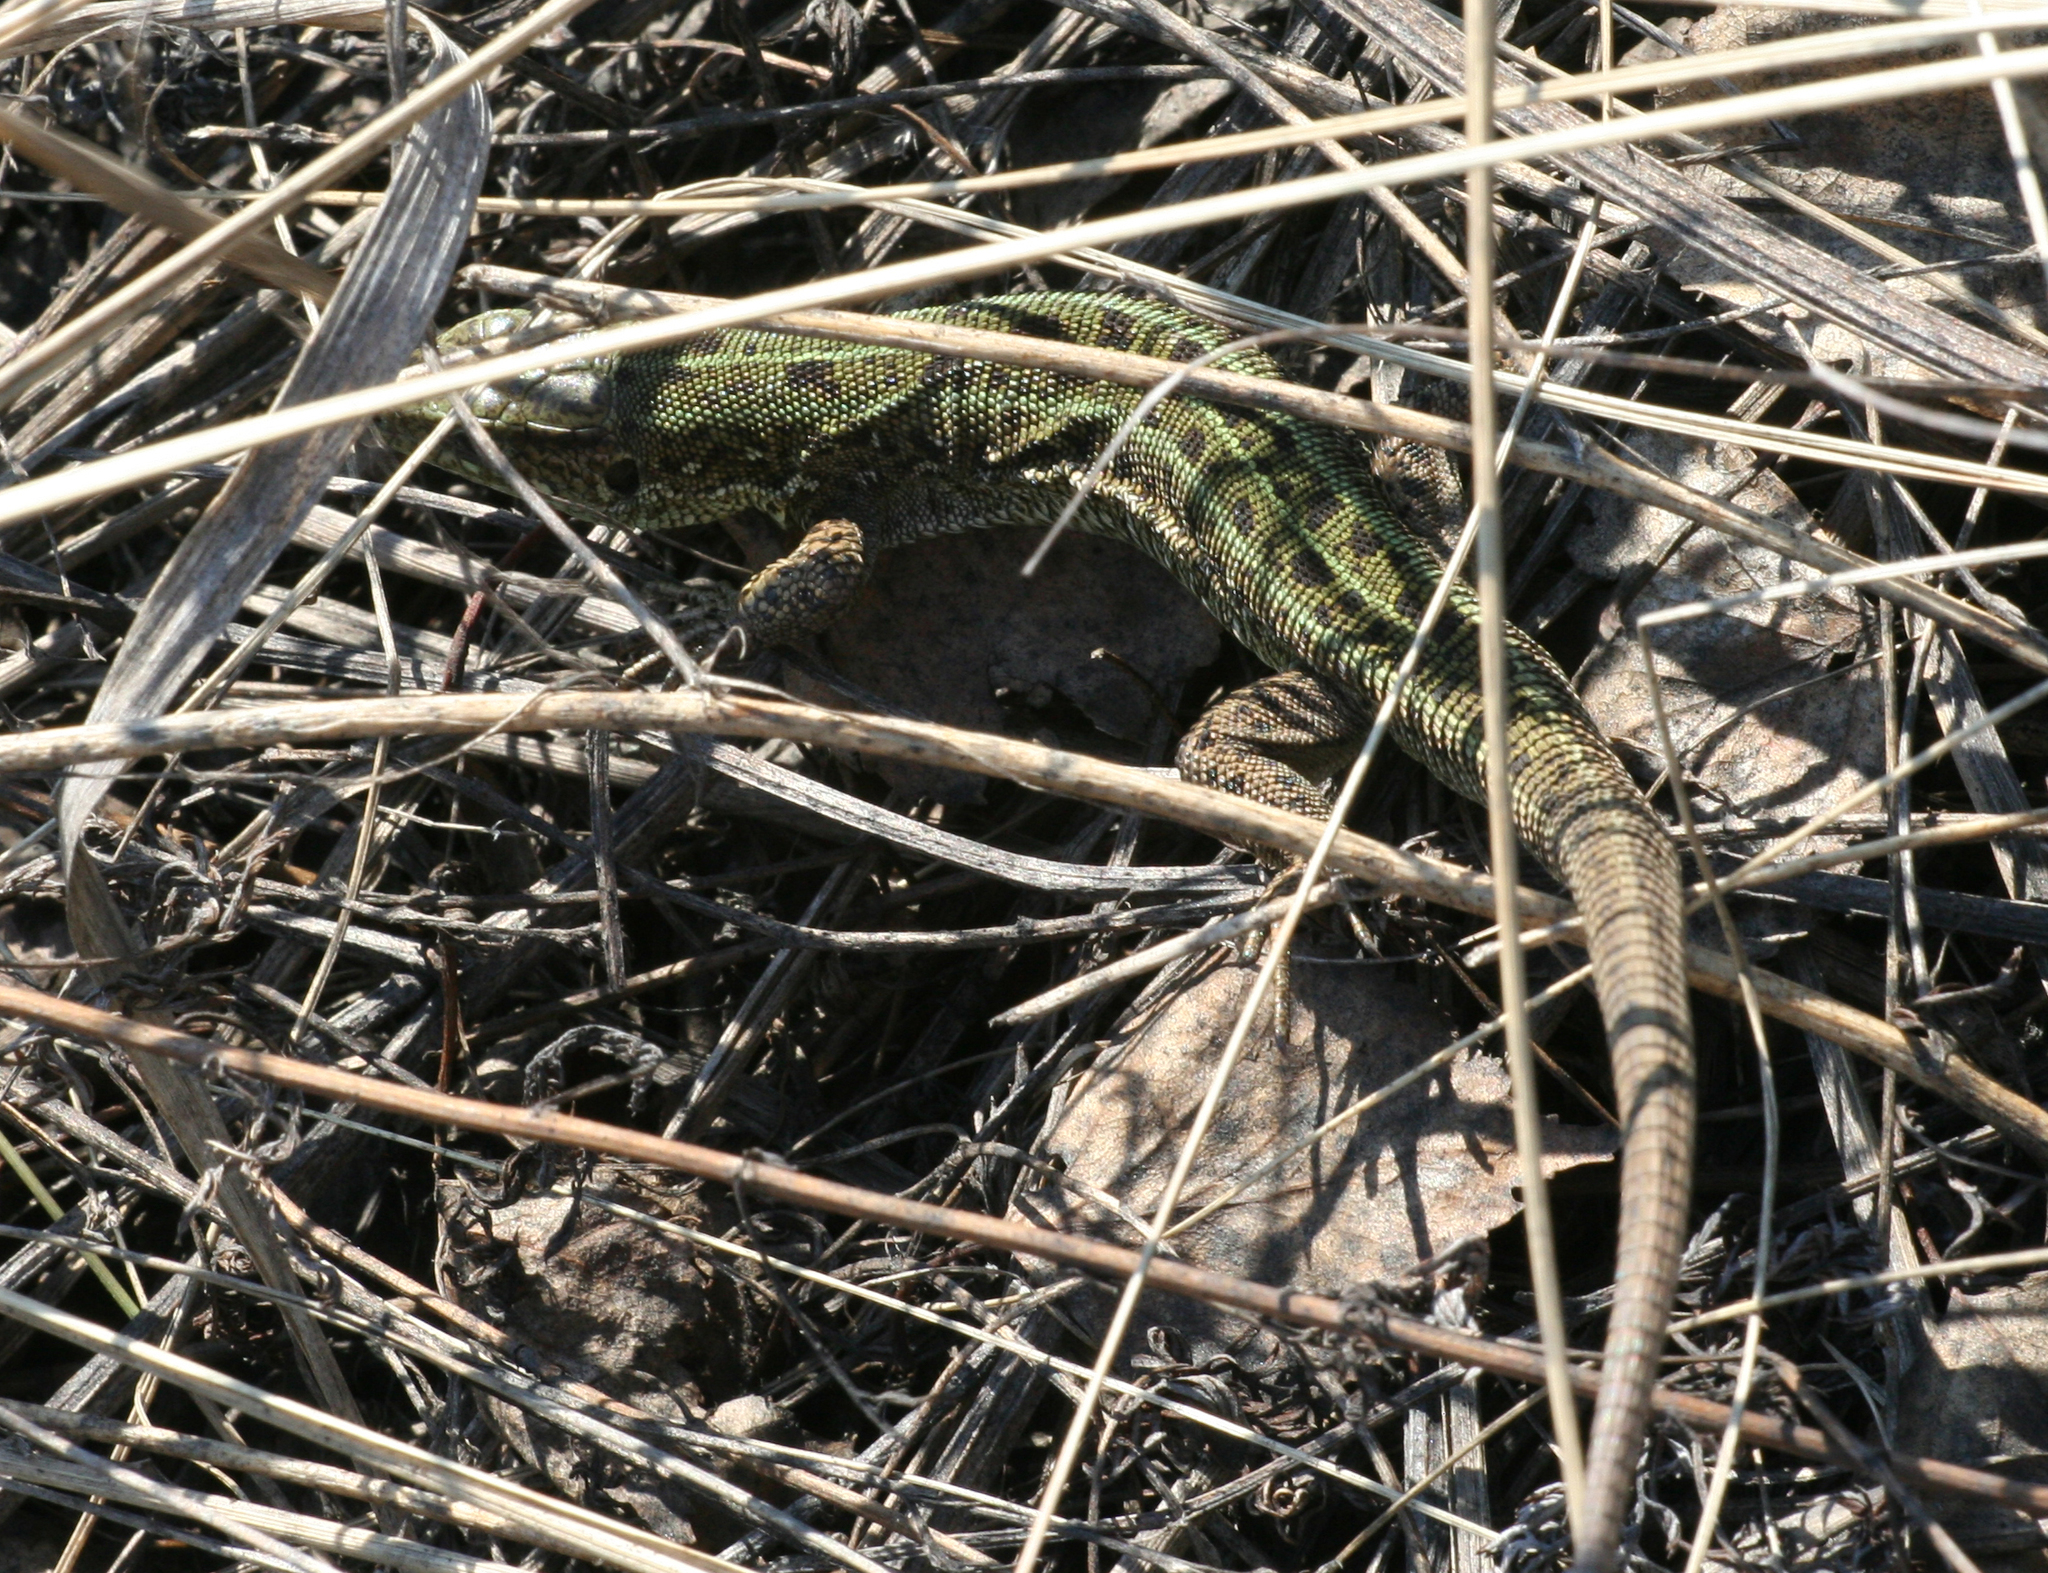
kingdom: Animalia
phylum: Chordata
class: Squamata
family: Lacertidae
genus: Lacerta
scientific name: Lacerta agilis
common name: Sand lizard
